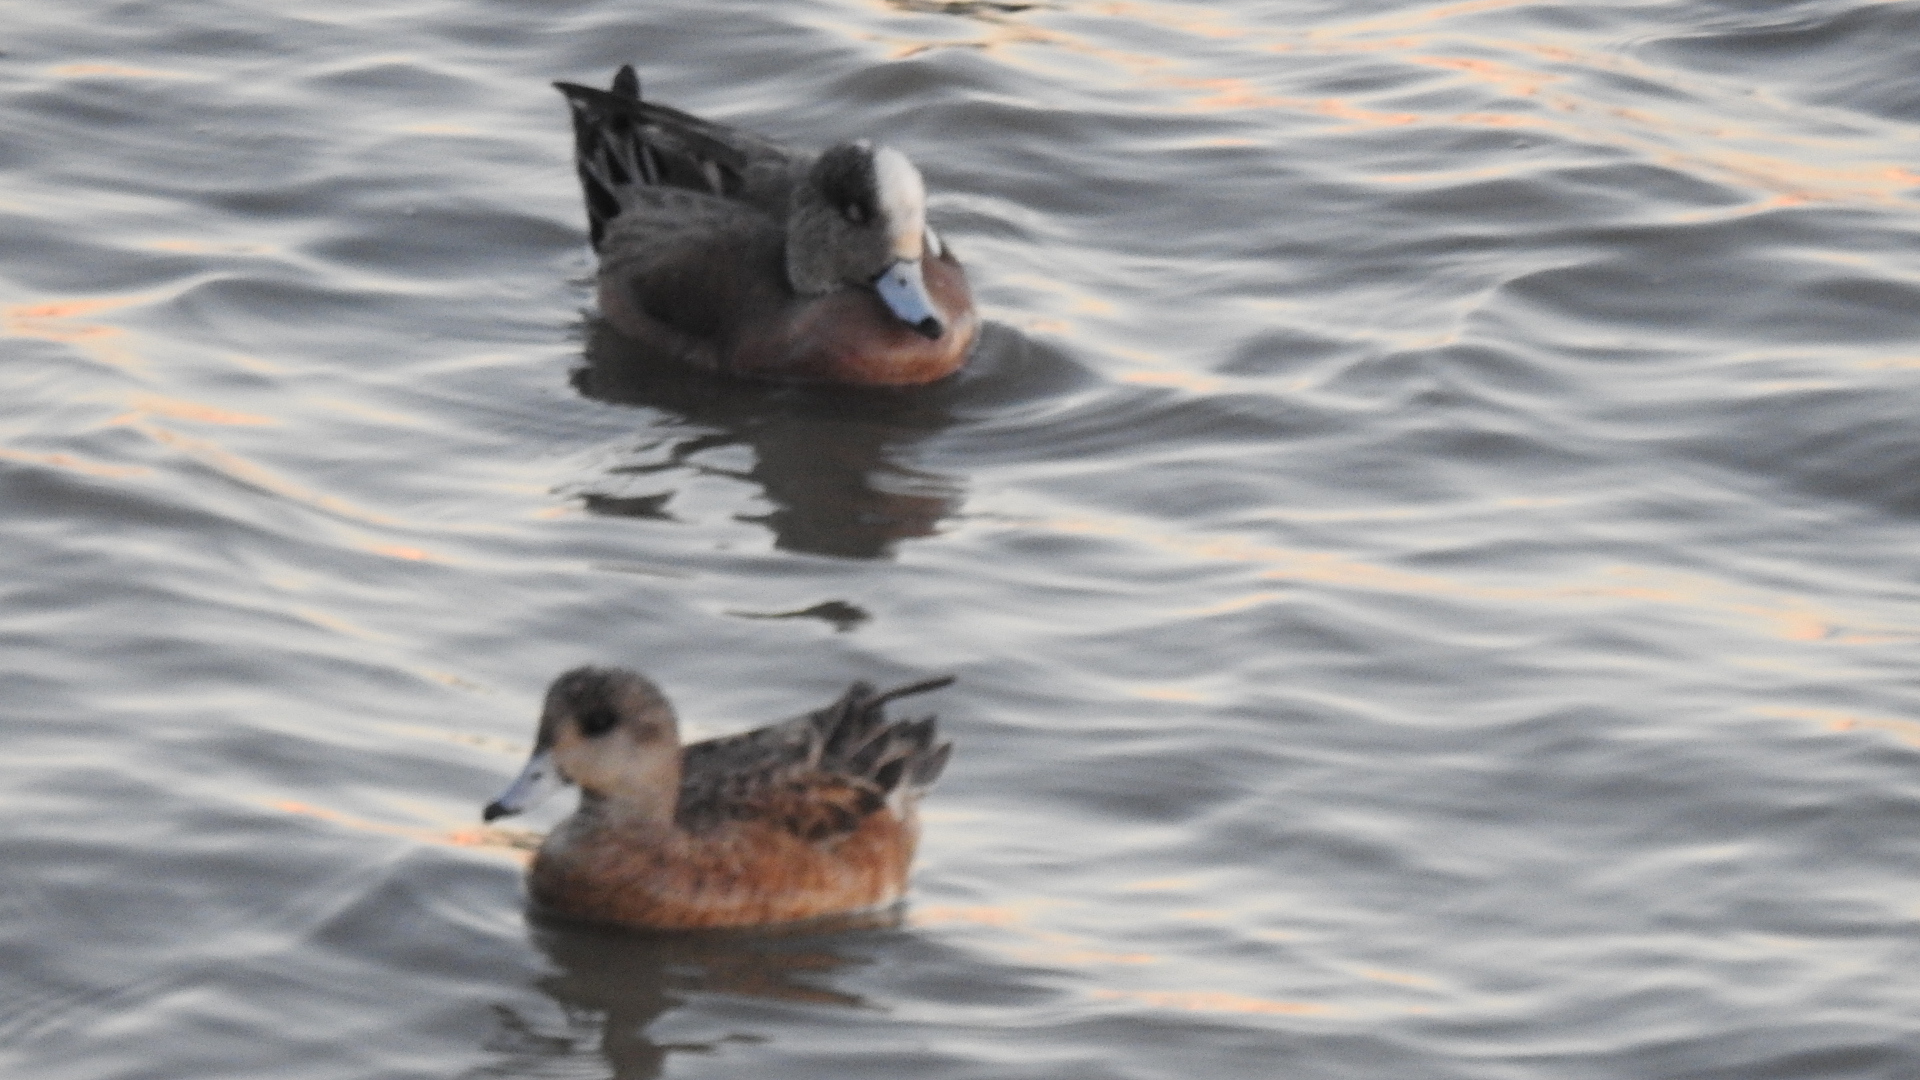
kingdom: Animalia
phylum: Chordata
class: Aves
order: Anseriformes
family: Anatidae
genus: Mareca
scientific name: Mareca americana
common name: American wigeon
